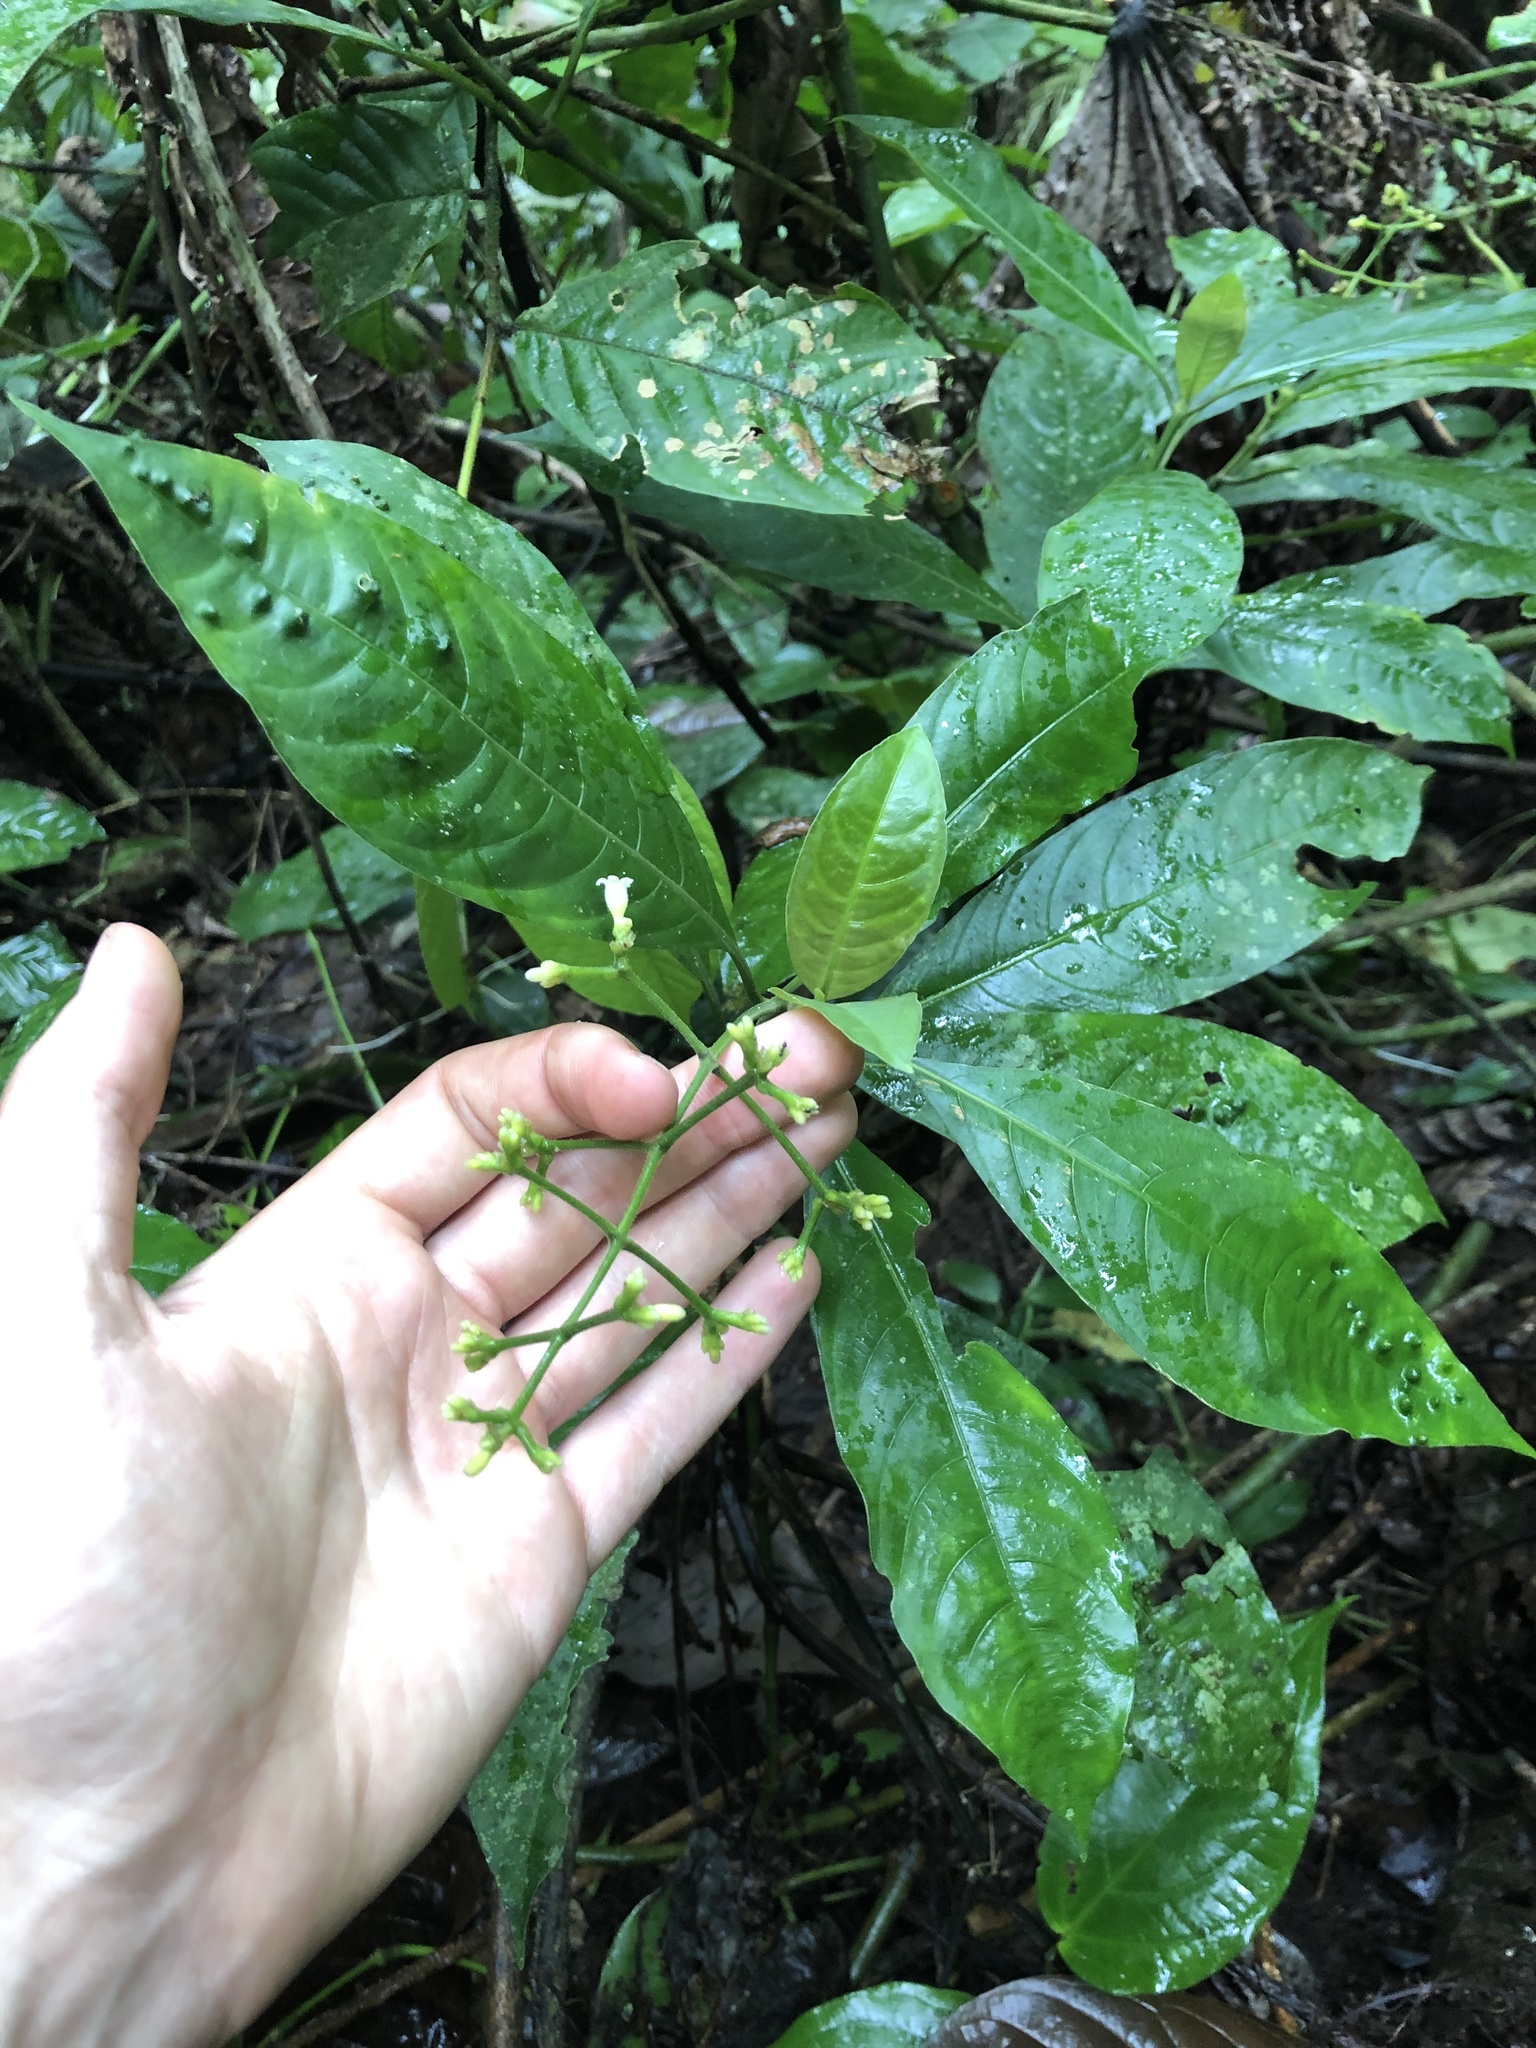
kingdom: Plantae
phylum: Tracheophyta
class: Magnoliopsida
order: Gentianales
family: Rubiaceae
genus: Palicourea
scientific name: Palicourea caerulea
